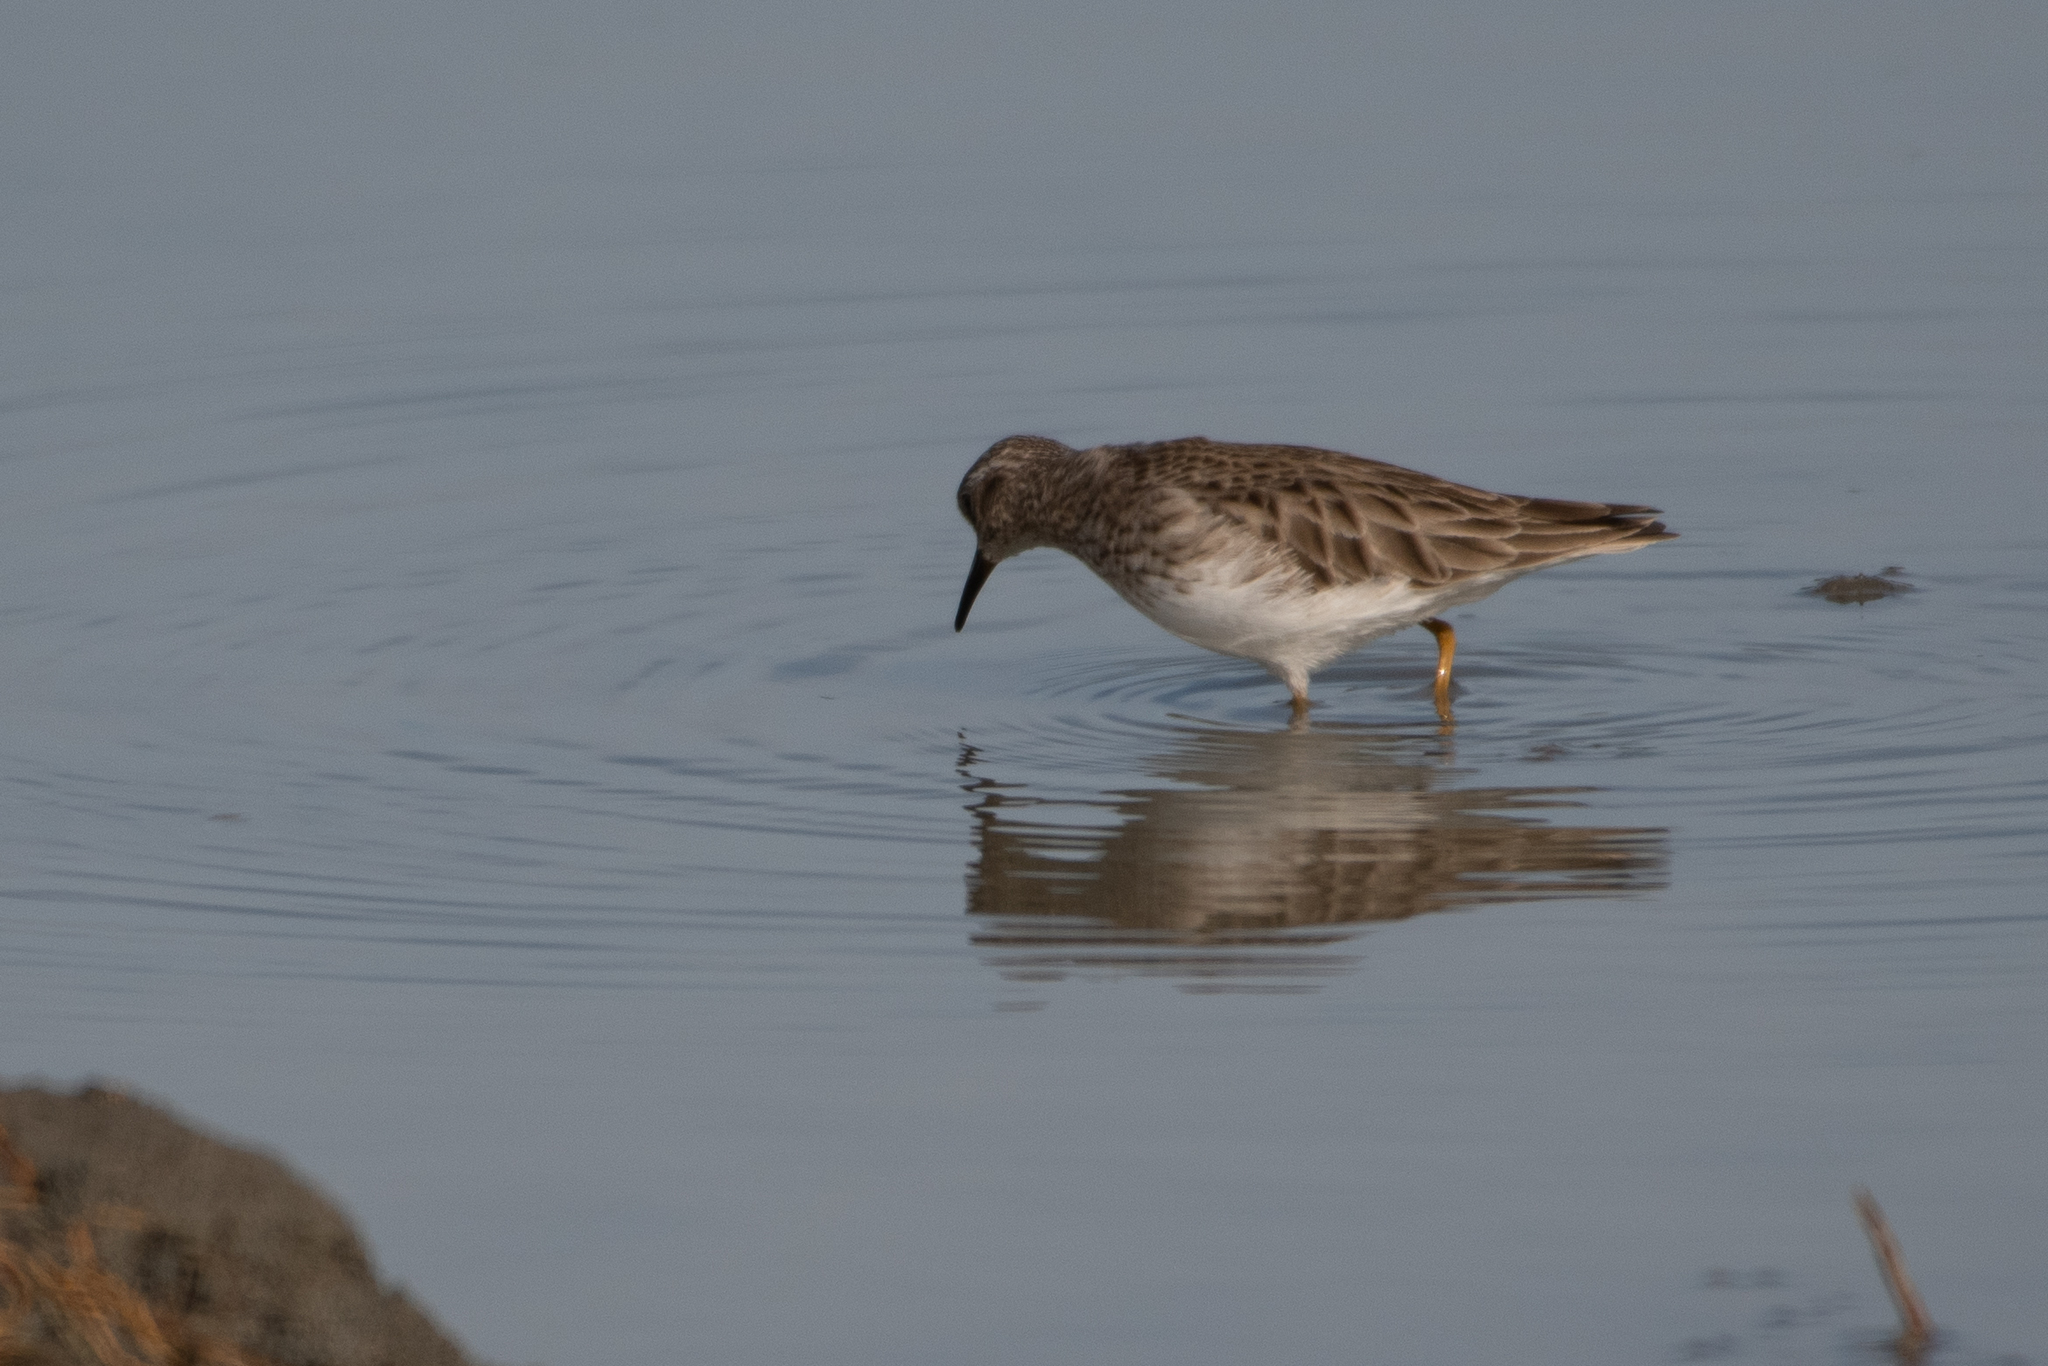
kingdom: Animalia
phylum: Chordata
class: Aves
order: Charadriiformes
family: Scolopacidae
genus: Calidris
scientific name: Calidris minutilla
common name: Least sandpiper
